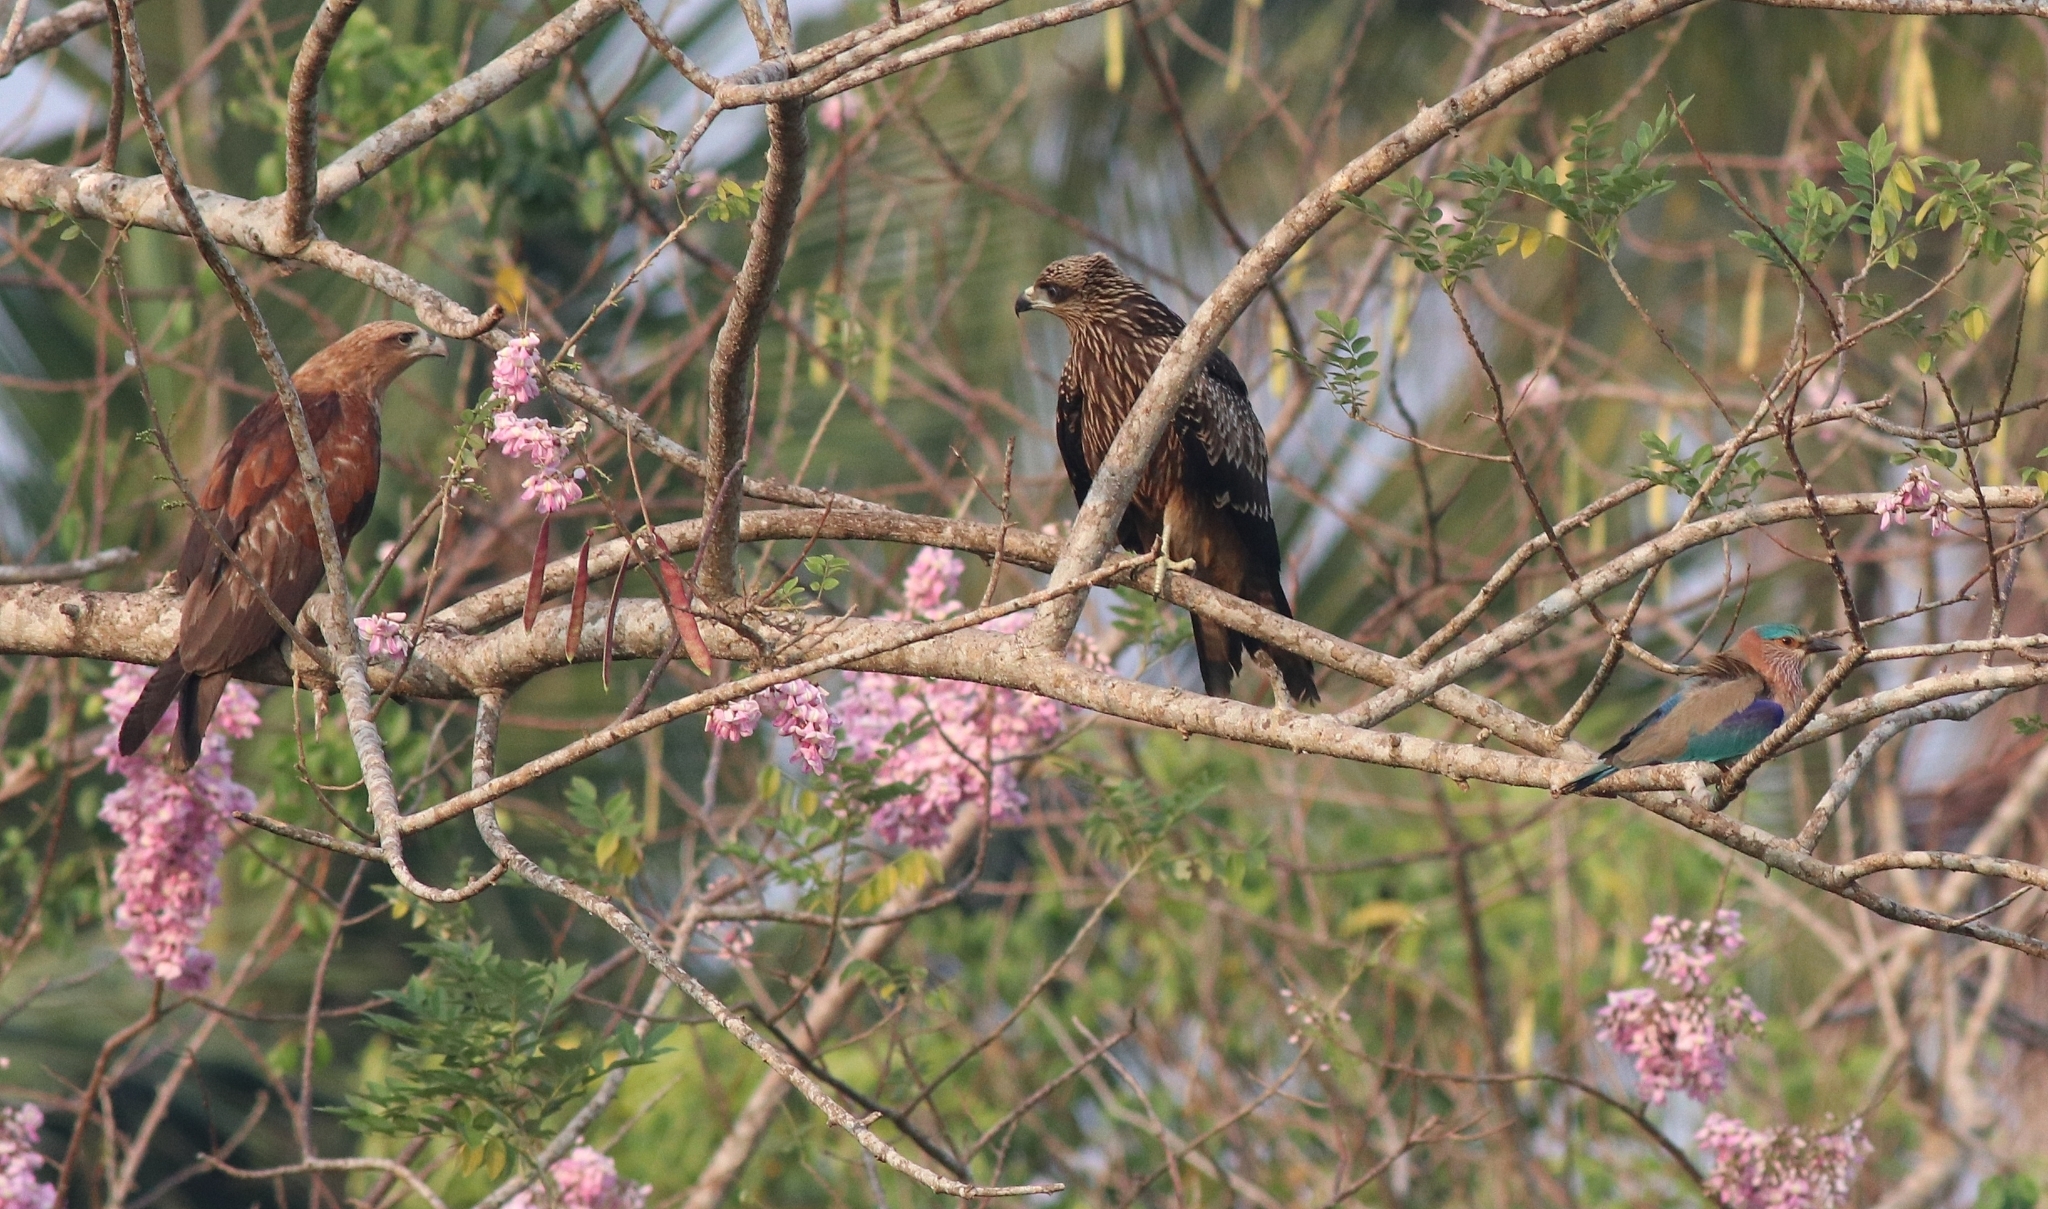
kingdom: Animalia
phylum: Chordata
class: Aves
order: Accipitriformes
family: Accipitridae
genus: Milvus
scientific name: Milvus migrans
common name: Black kite
